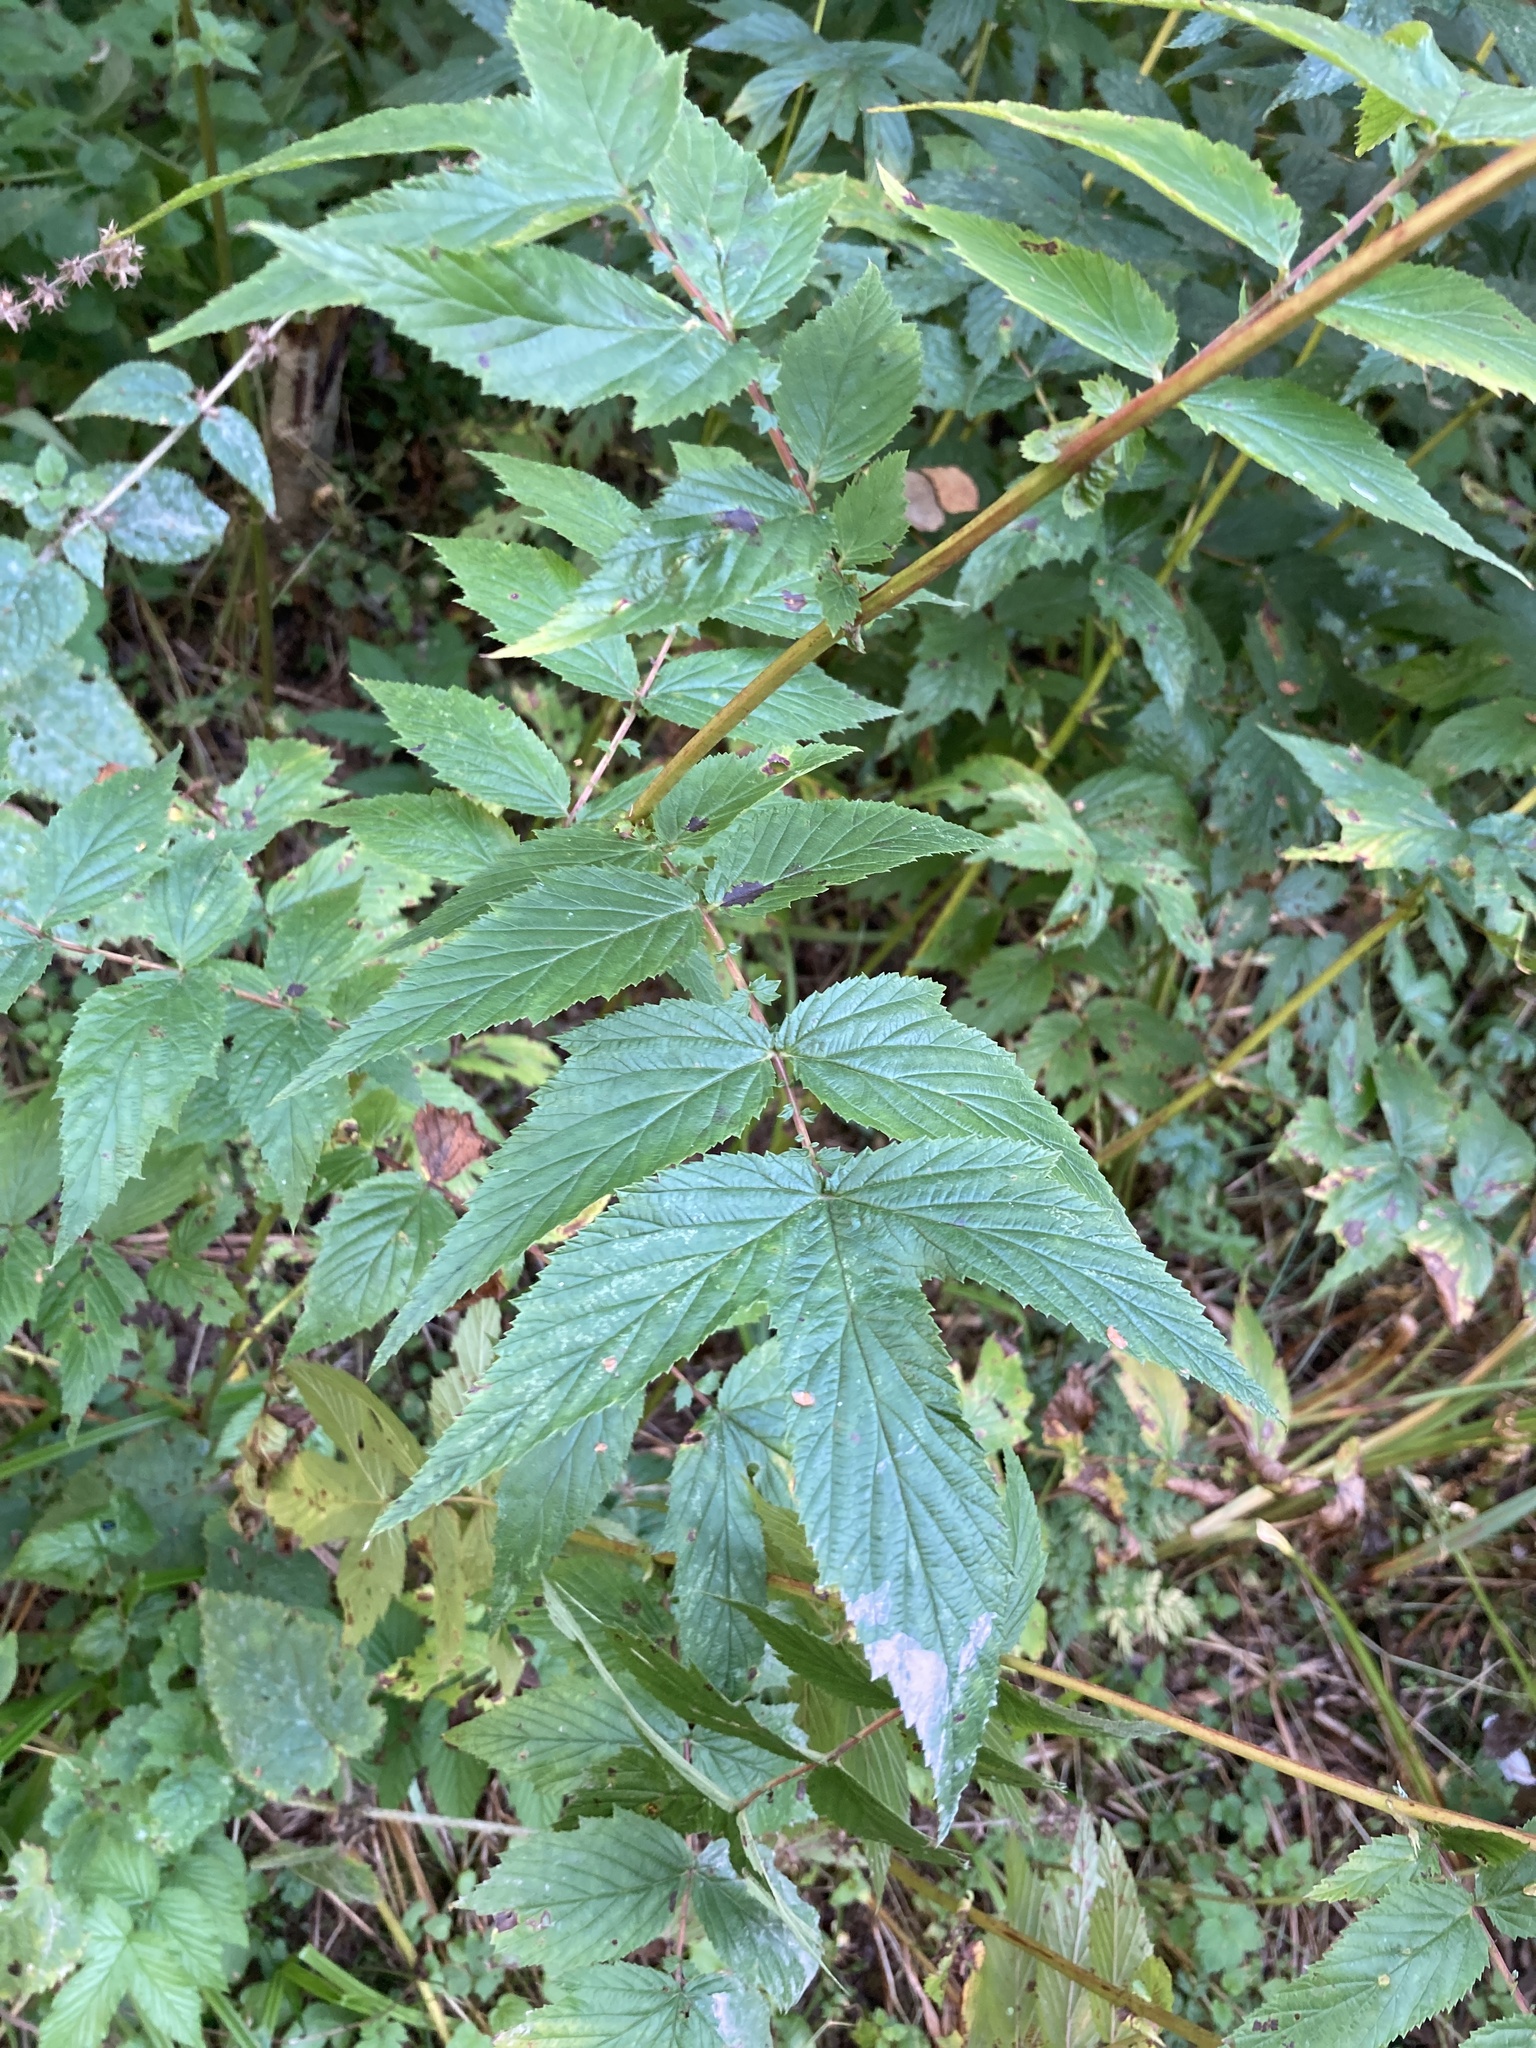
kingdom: Plantae
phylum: Tracheophyta
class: Magnoliopsida
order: Rosales
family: Rosaceae
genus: Filipendula
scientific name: Filipendula ulmaria
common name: Meadowsweet
